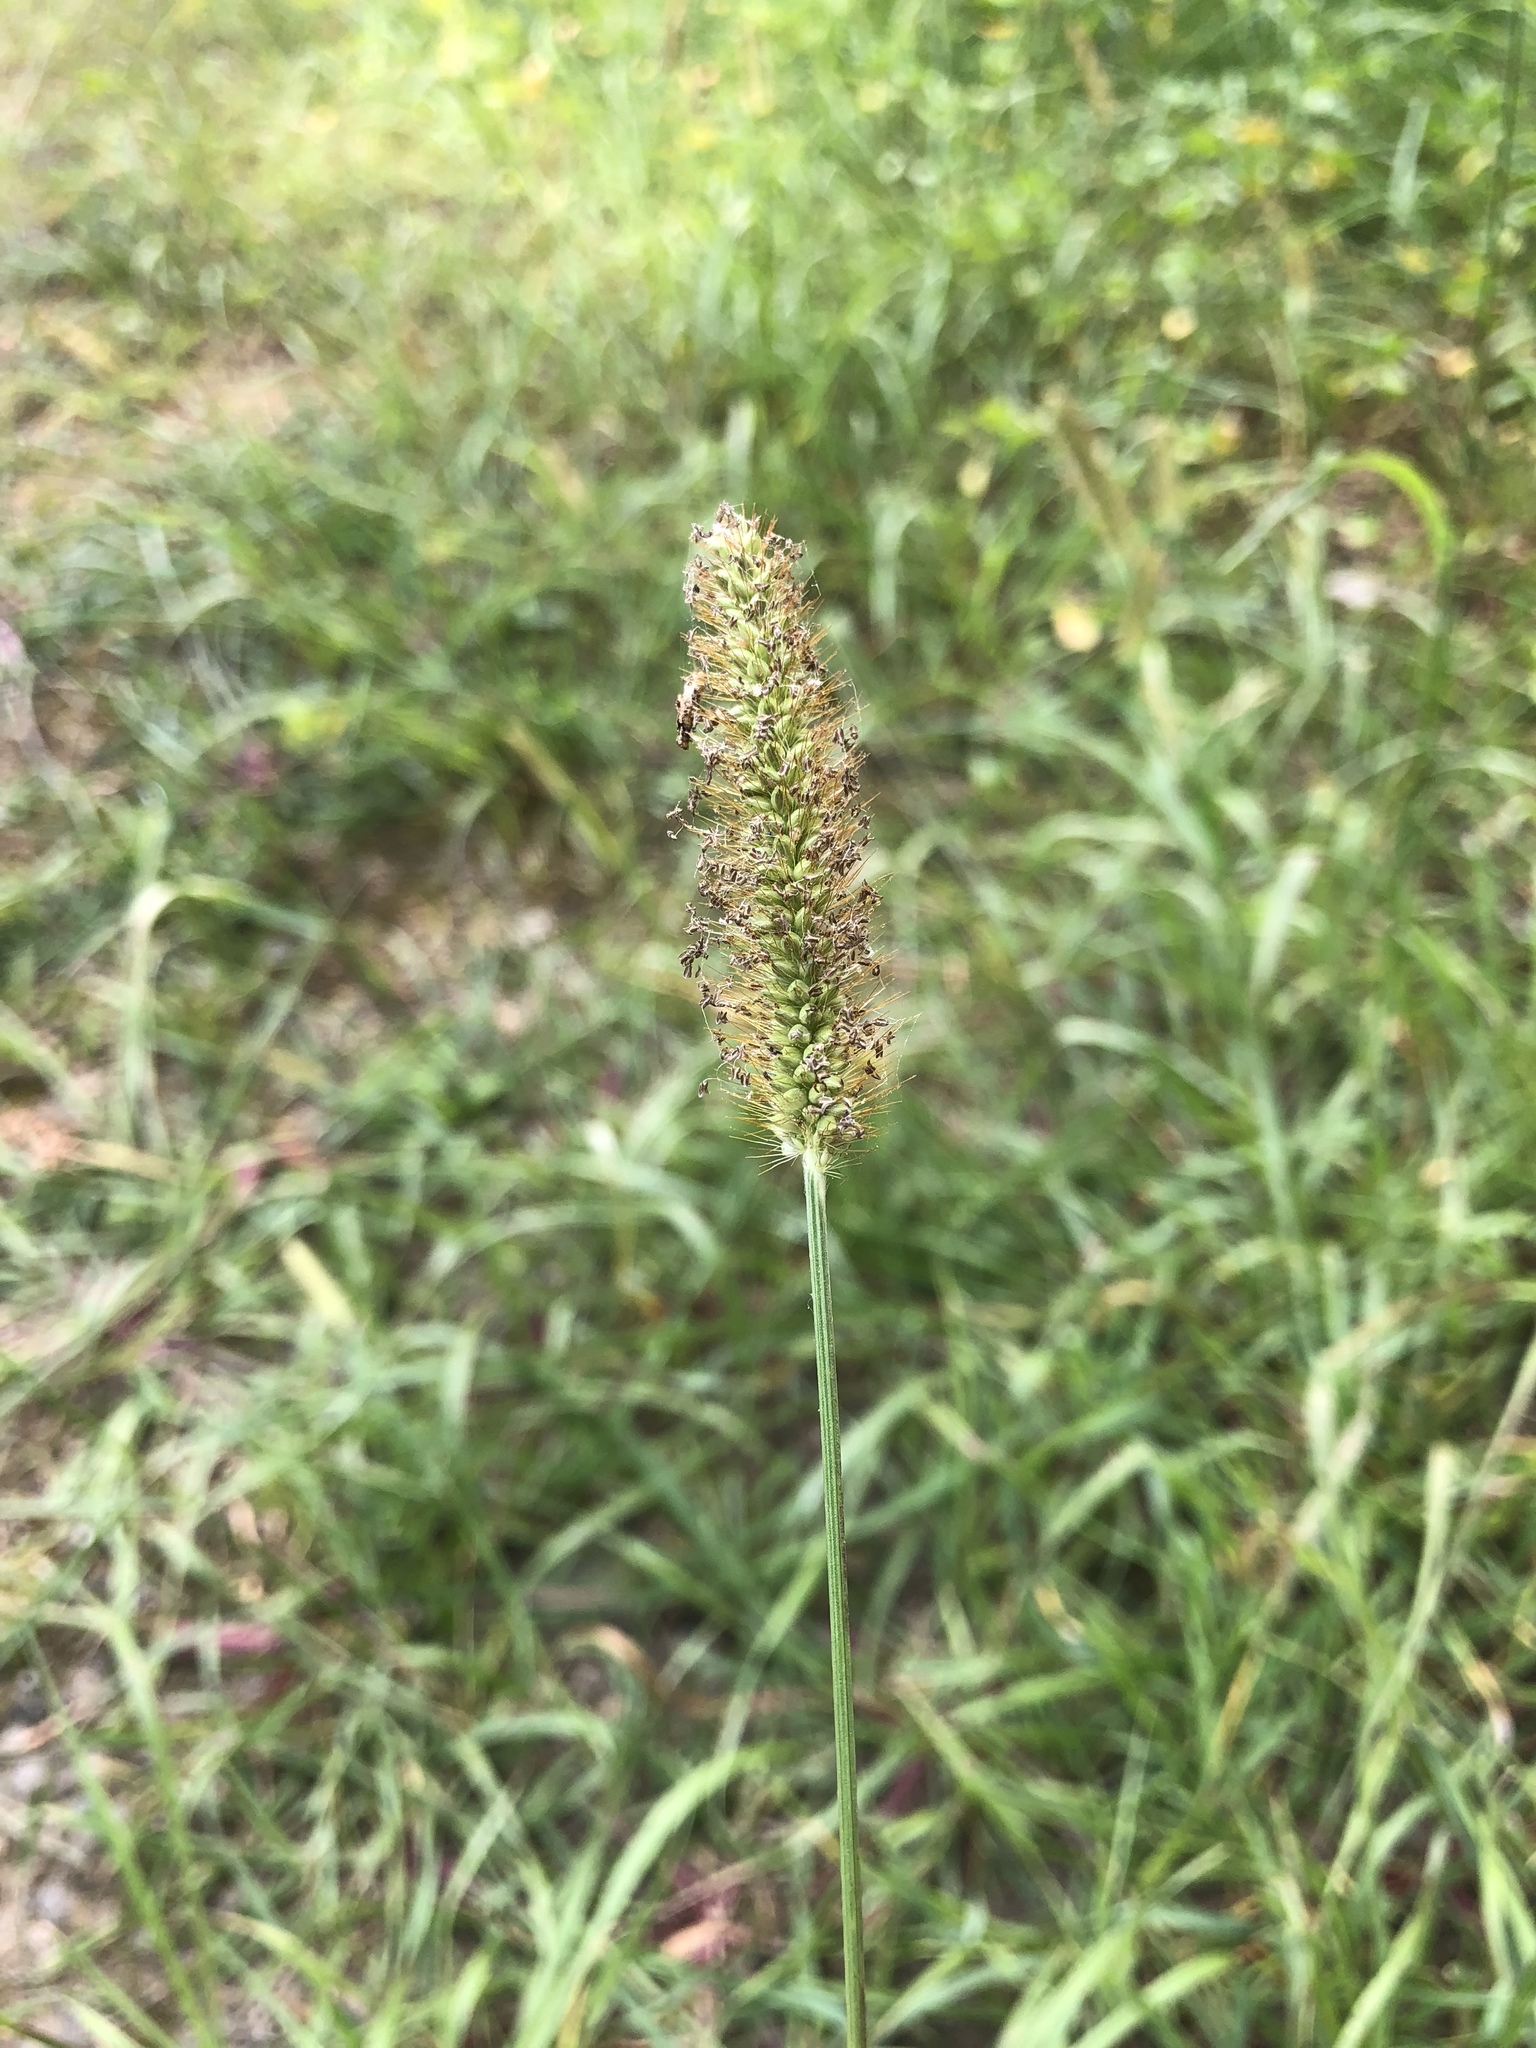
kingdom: Plantae
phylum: Tracheophyta
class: Liliopsida
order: Poales
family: Poaceae
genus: Setaria
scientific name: Setaria pumila
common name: Yellow bristle-grass
